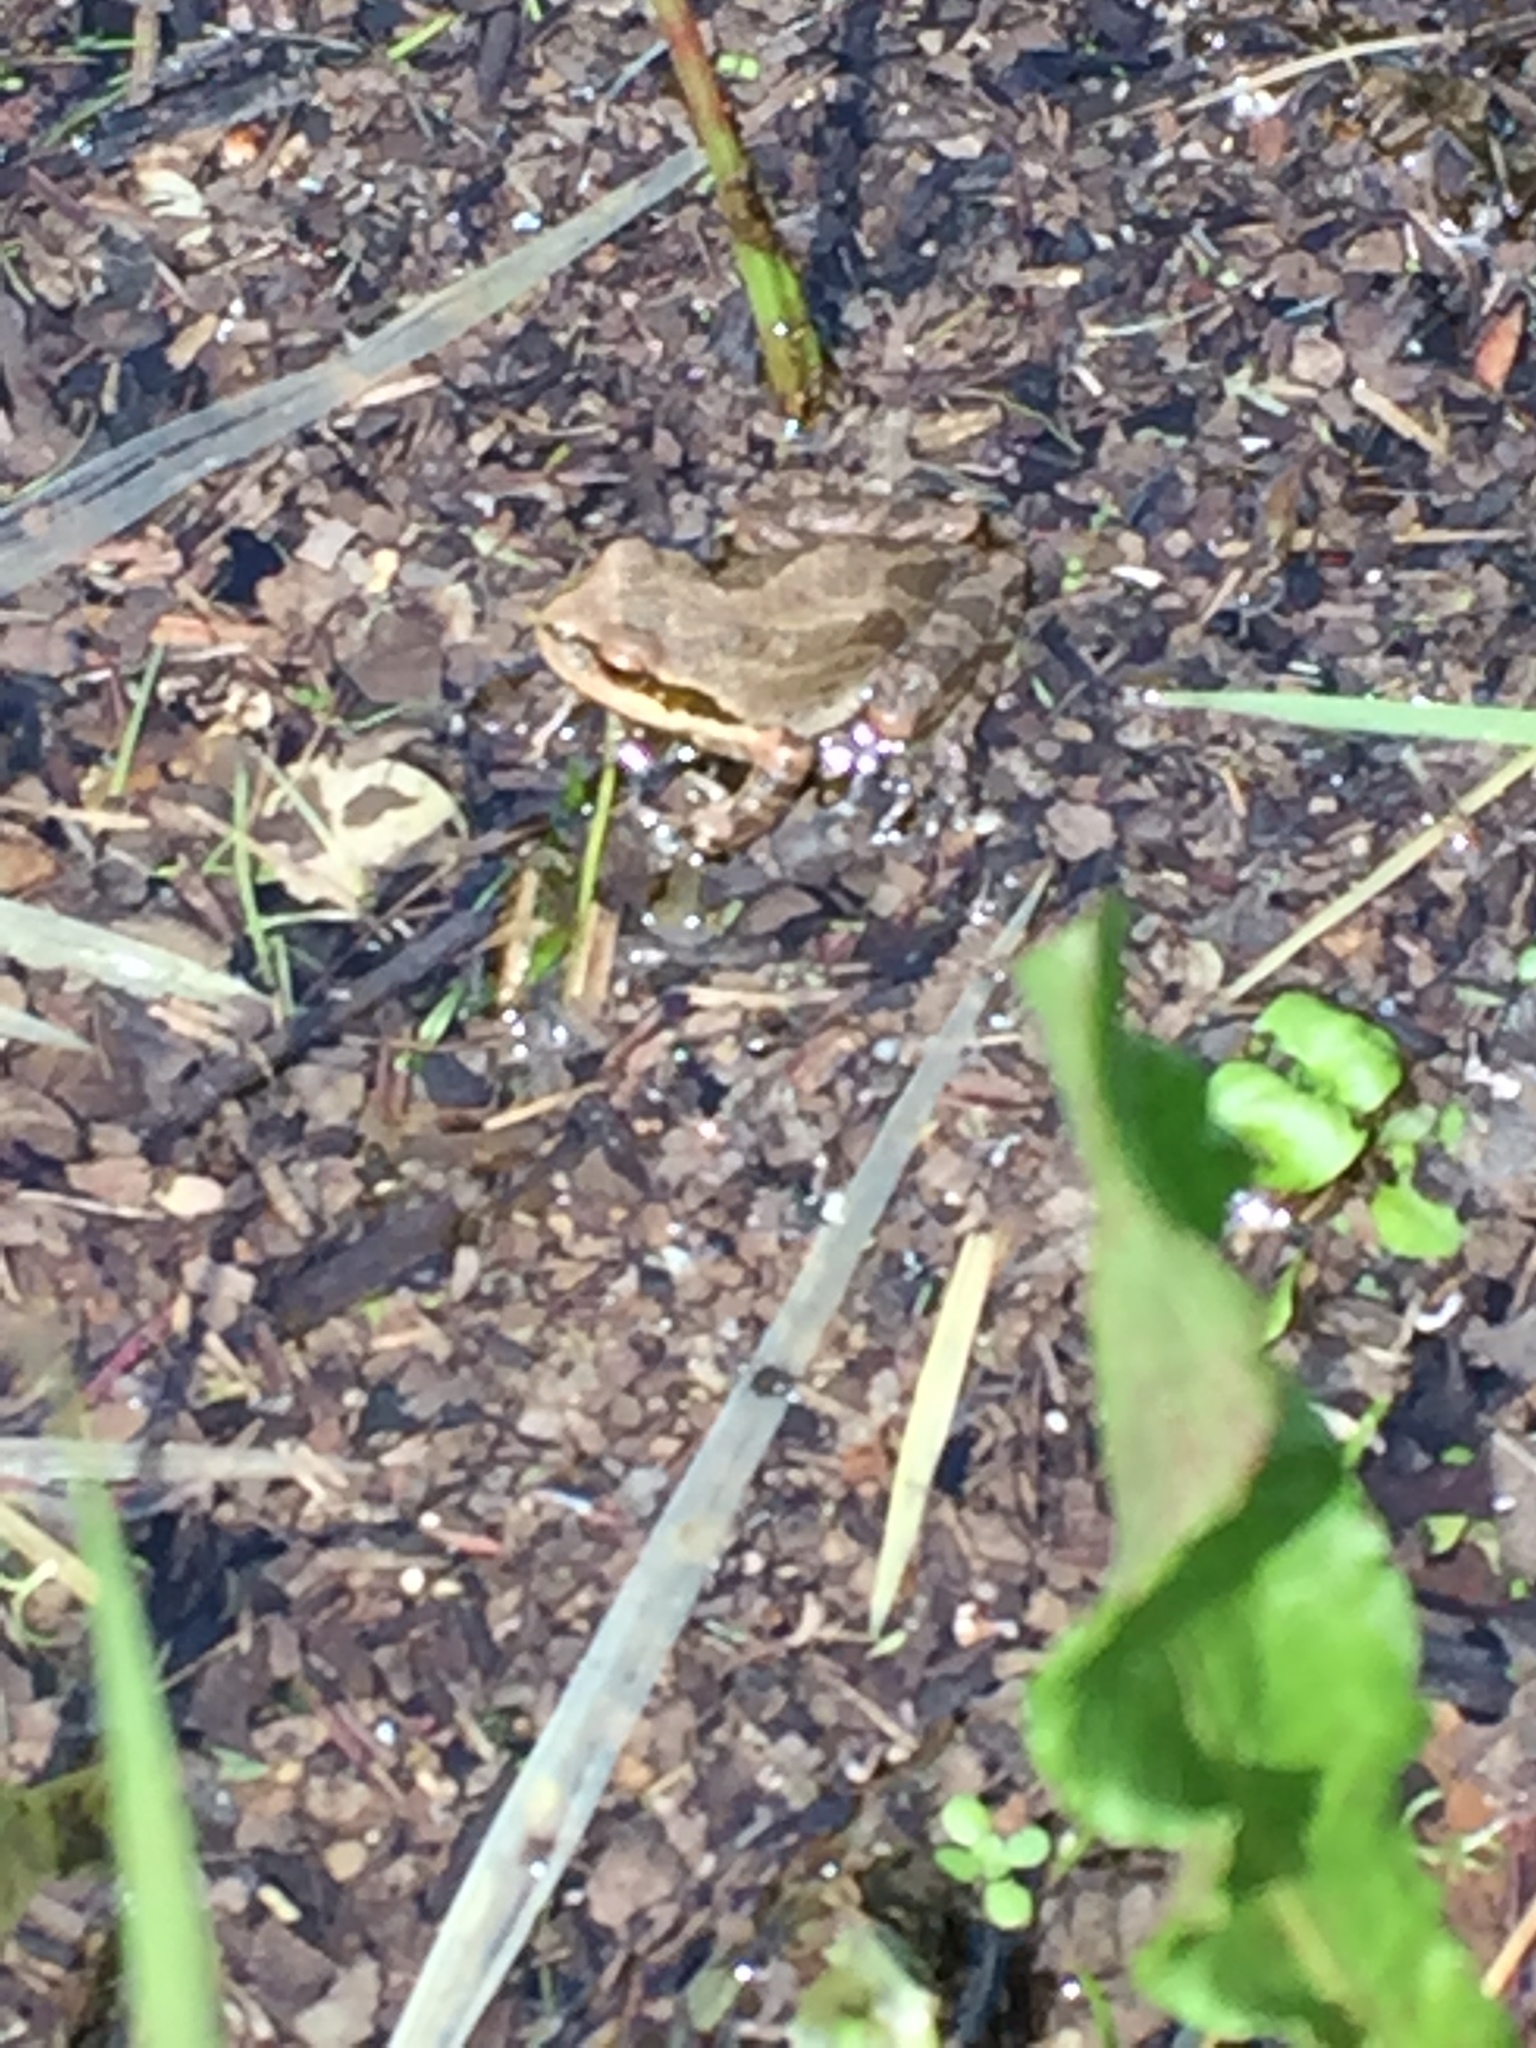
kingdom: Animalia
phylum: Chordata
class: Amphibia
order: Anura
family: Hylidae
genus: Pseudacris
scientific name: Pseudacris regilla
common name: Pacific chorus frog
